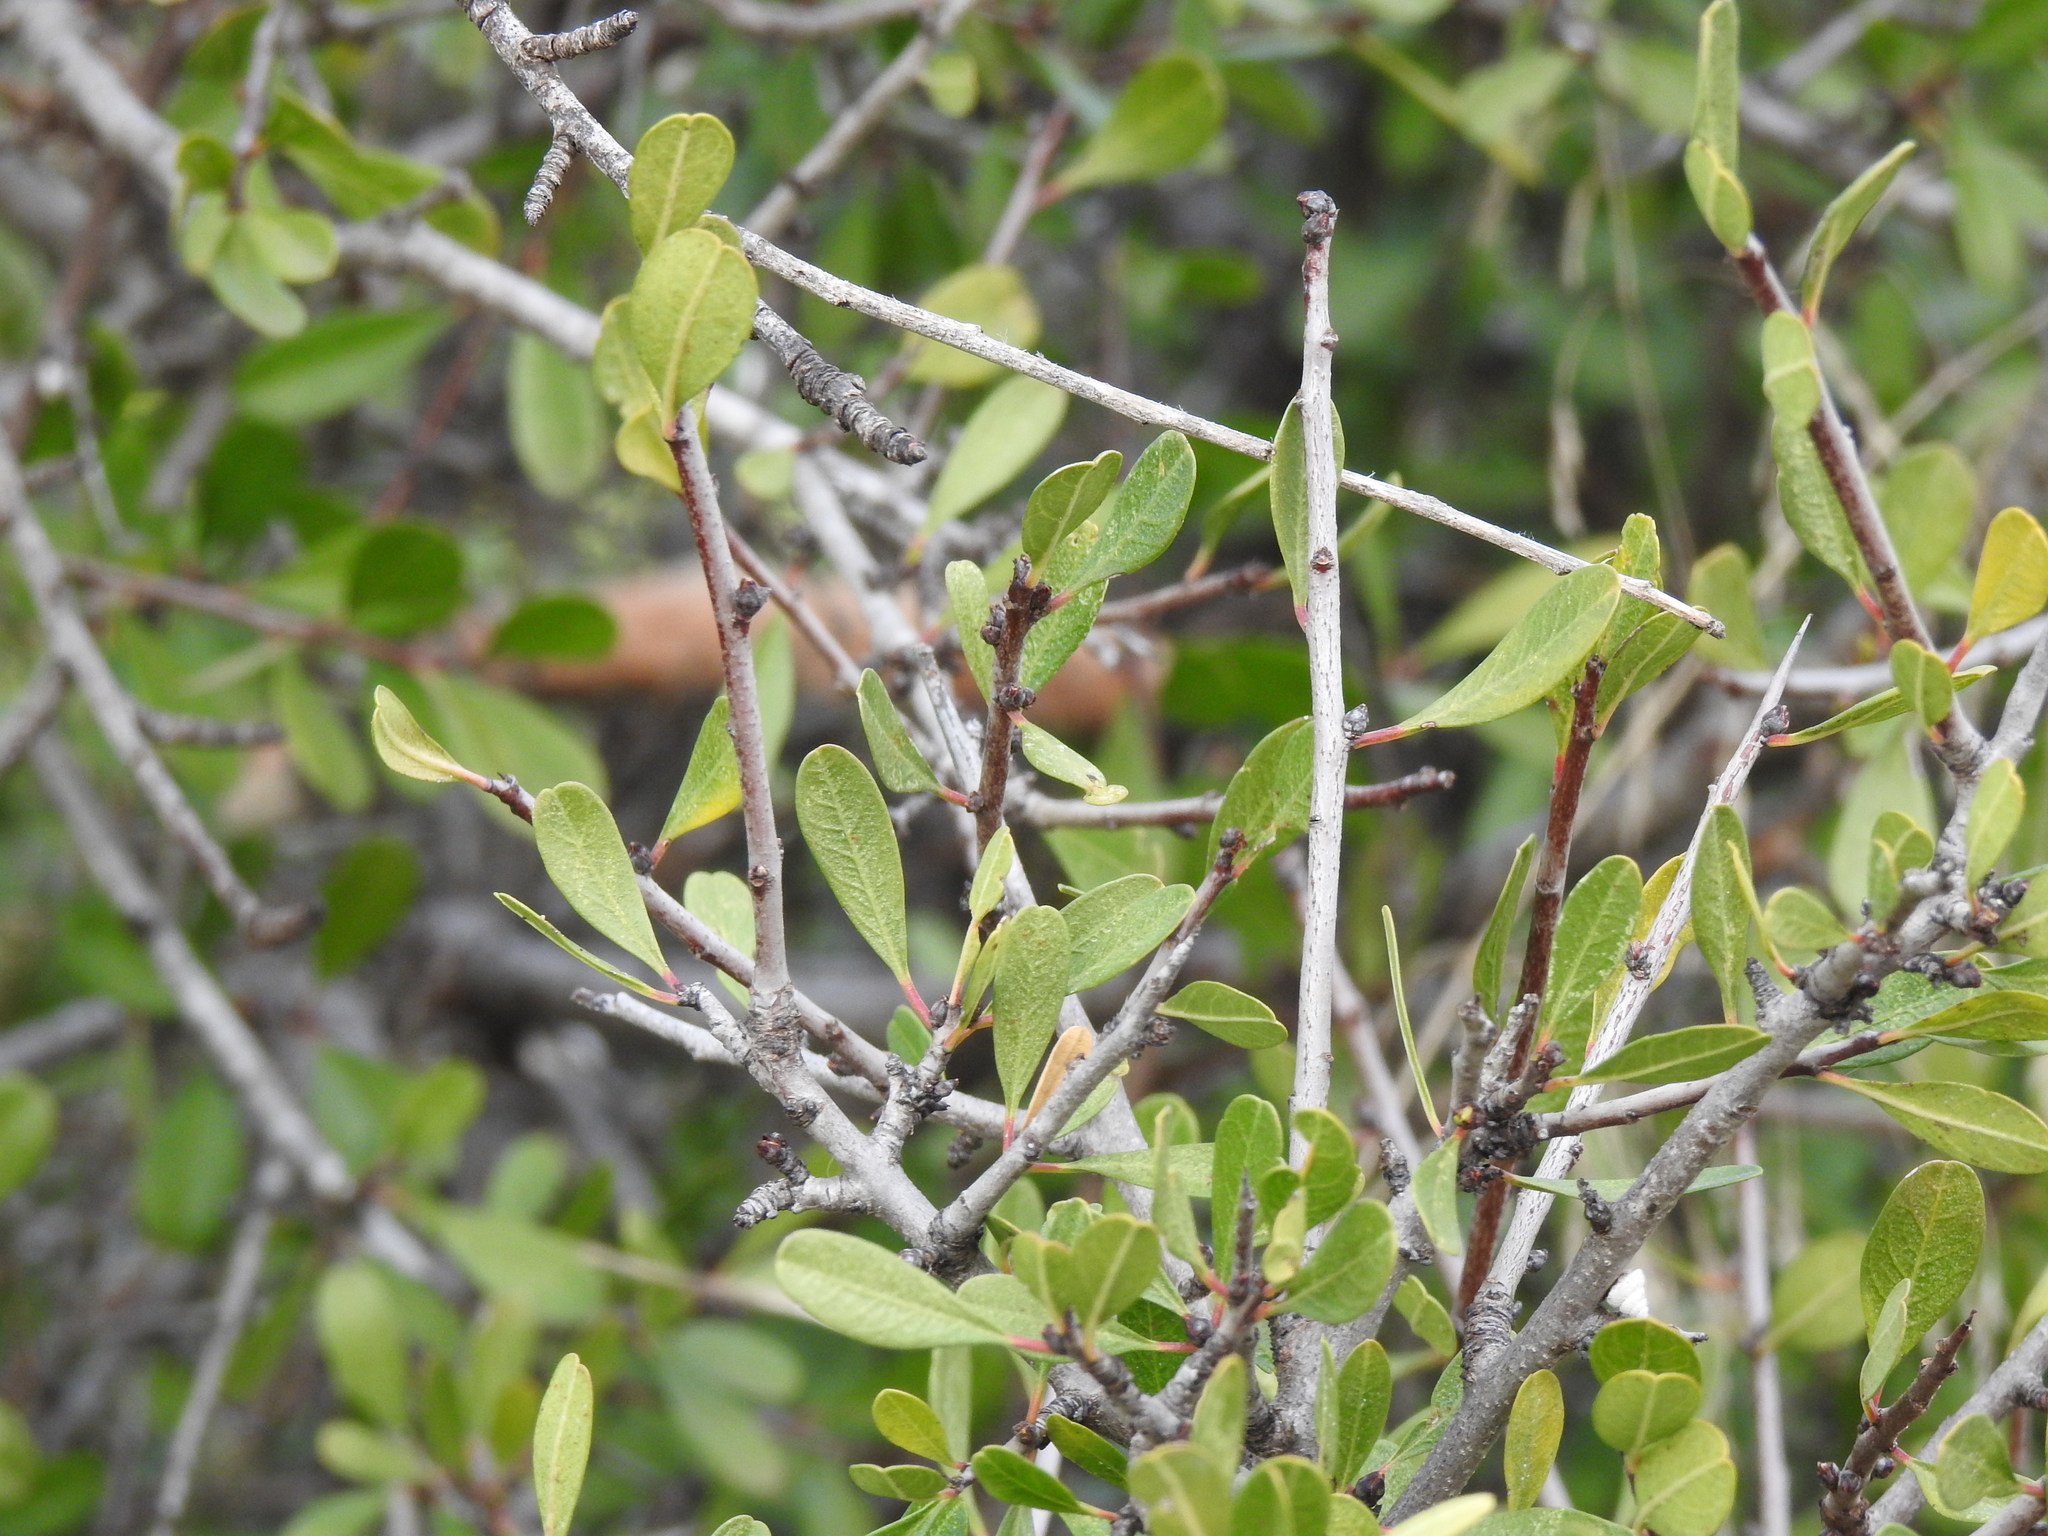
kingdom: Plantae
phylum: Tracheophyta
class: Magnoliopsida
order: Rosales
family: Rhamnaceae
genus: Rhamnus
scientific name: Rhamnus oleoides
